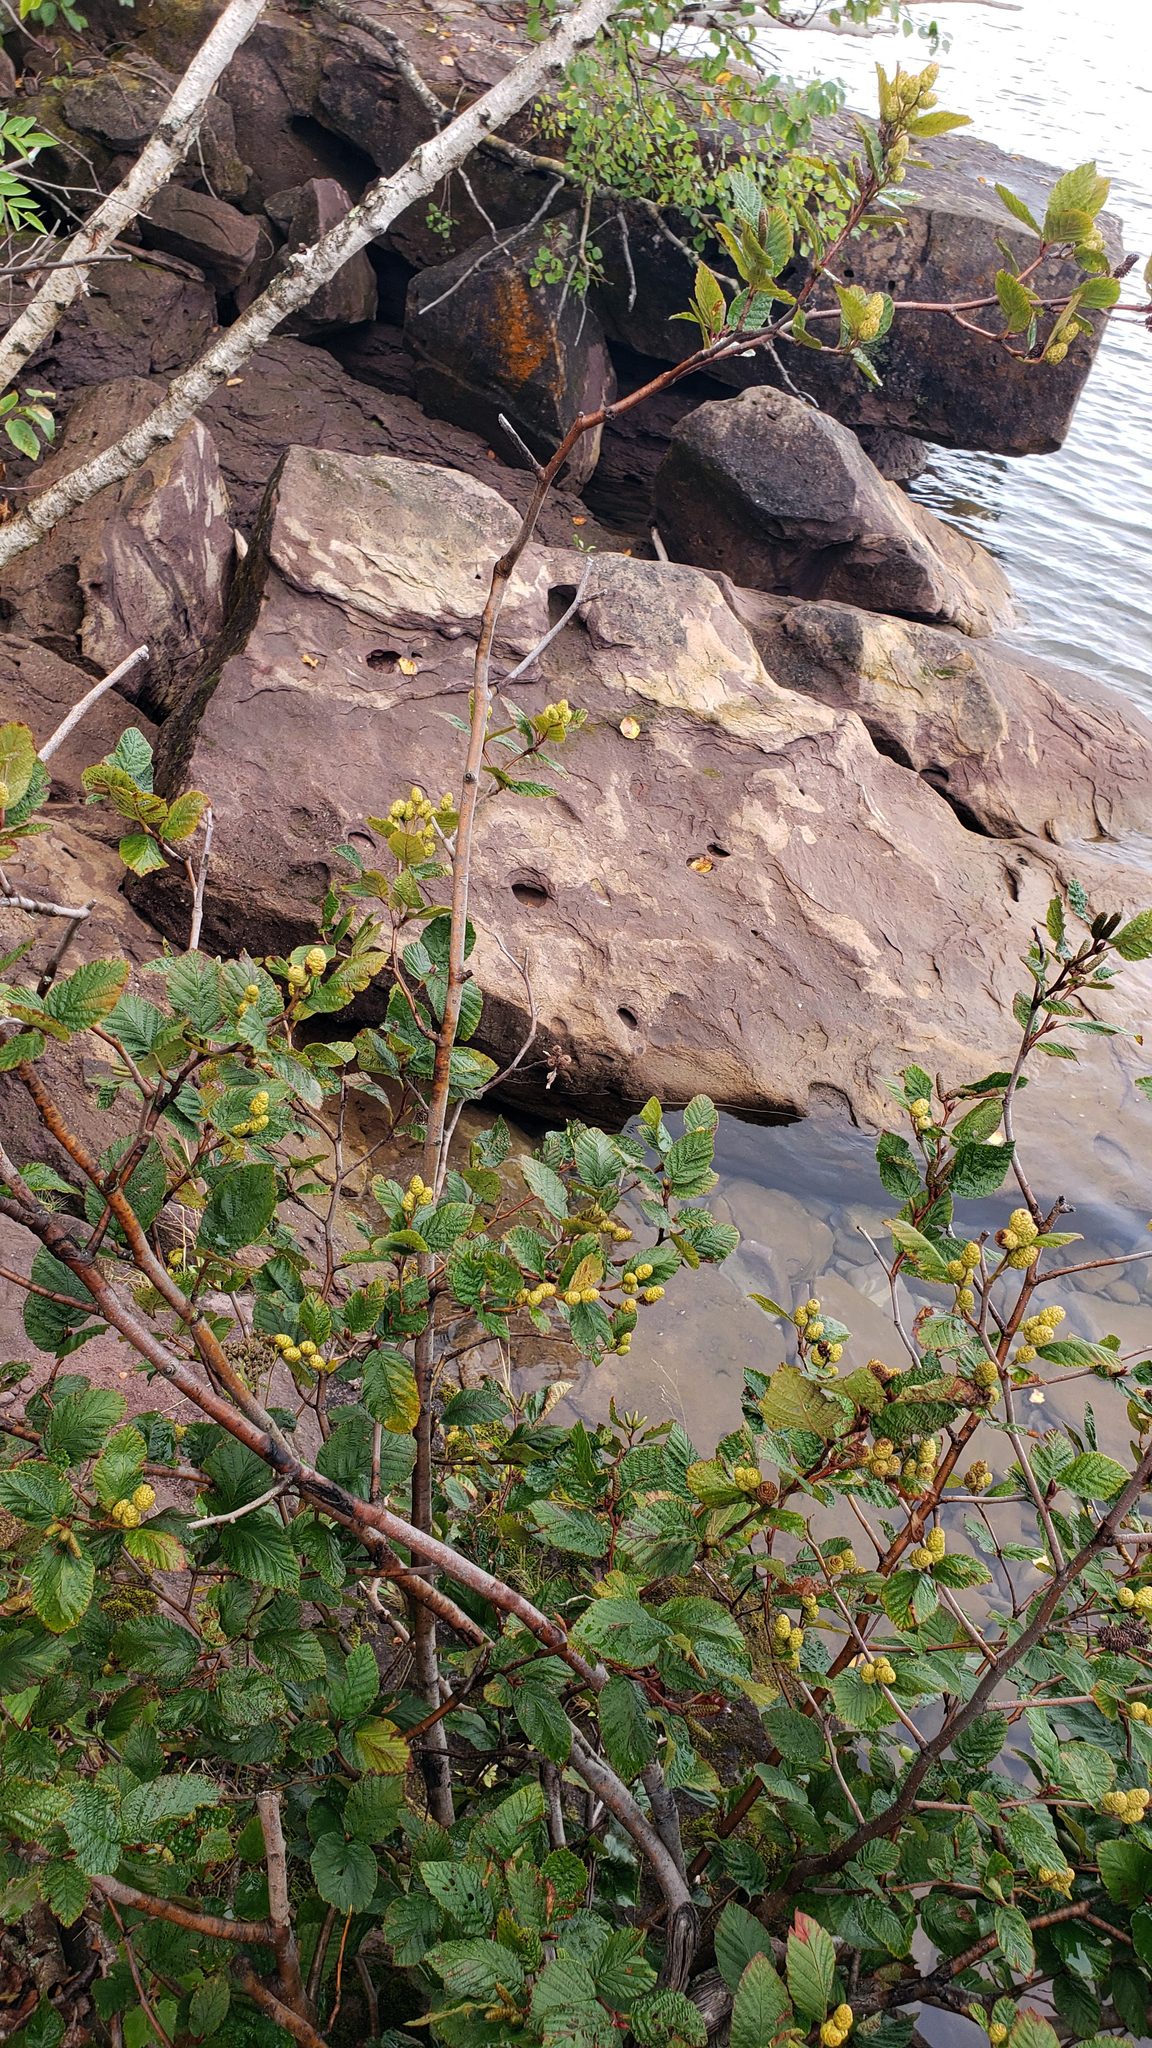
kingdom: Plantae
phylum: Tracheophyta
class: Magnoliopsida
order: Fagales
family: Betulaceae
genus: Alnus
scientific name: Alnus alnobetula
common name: Green alder
